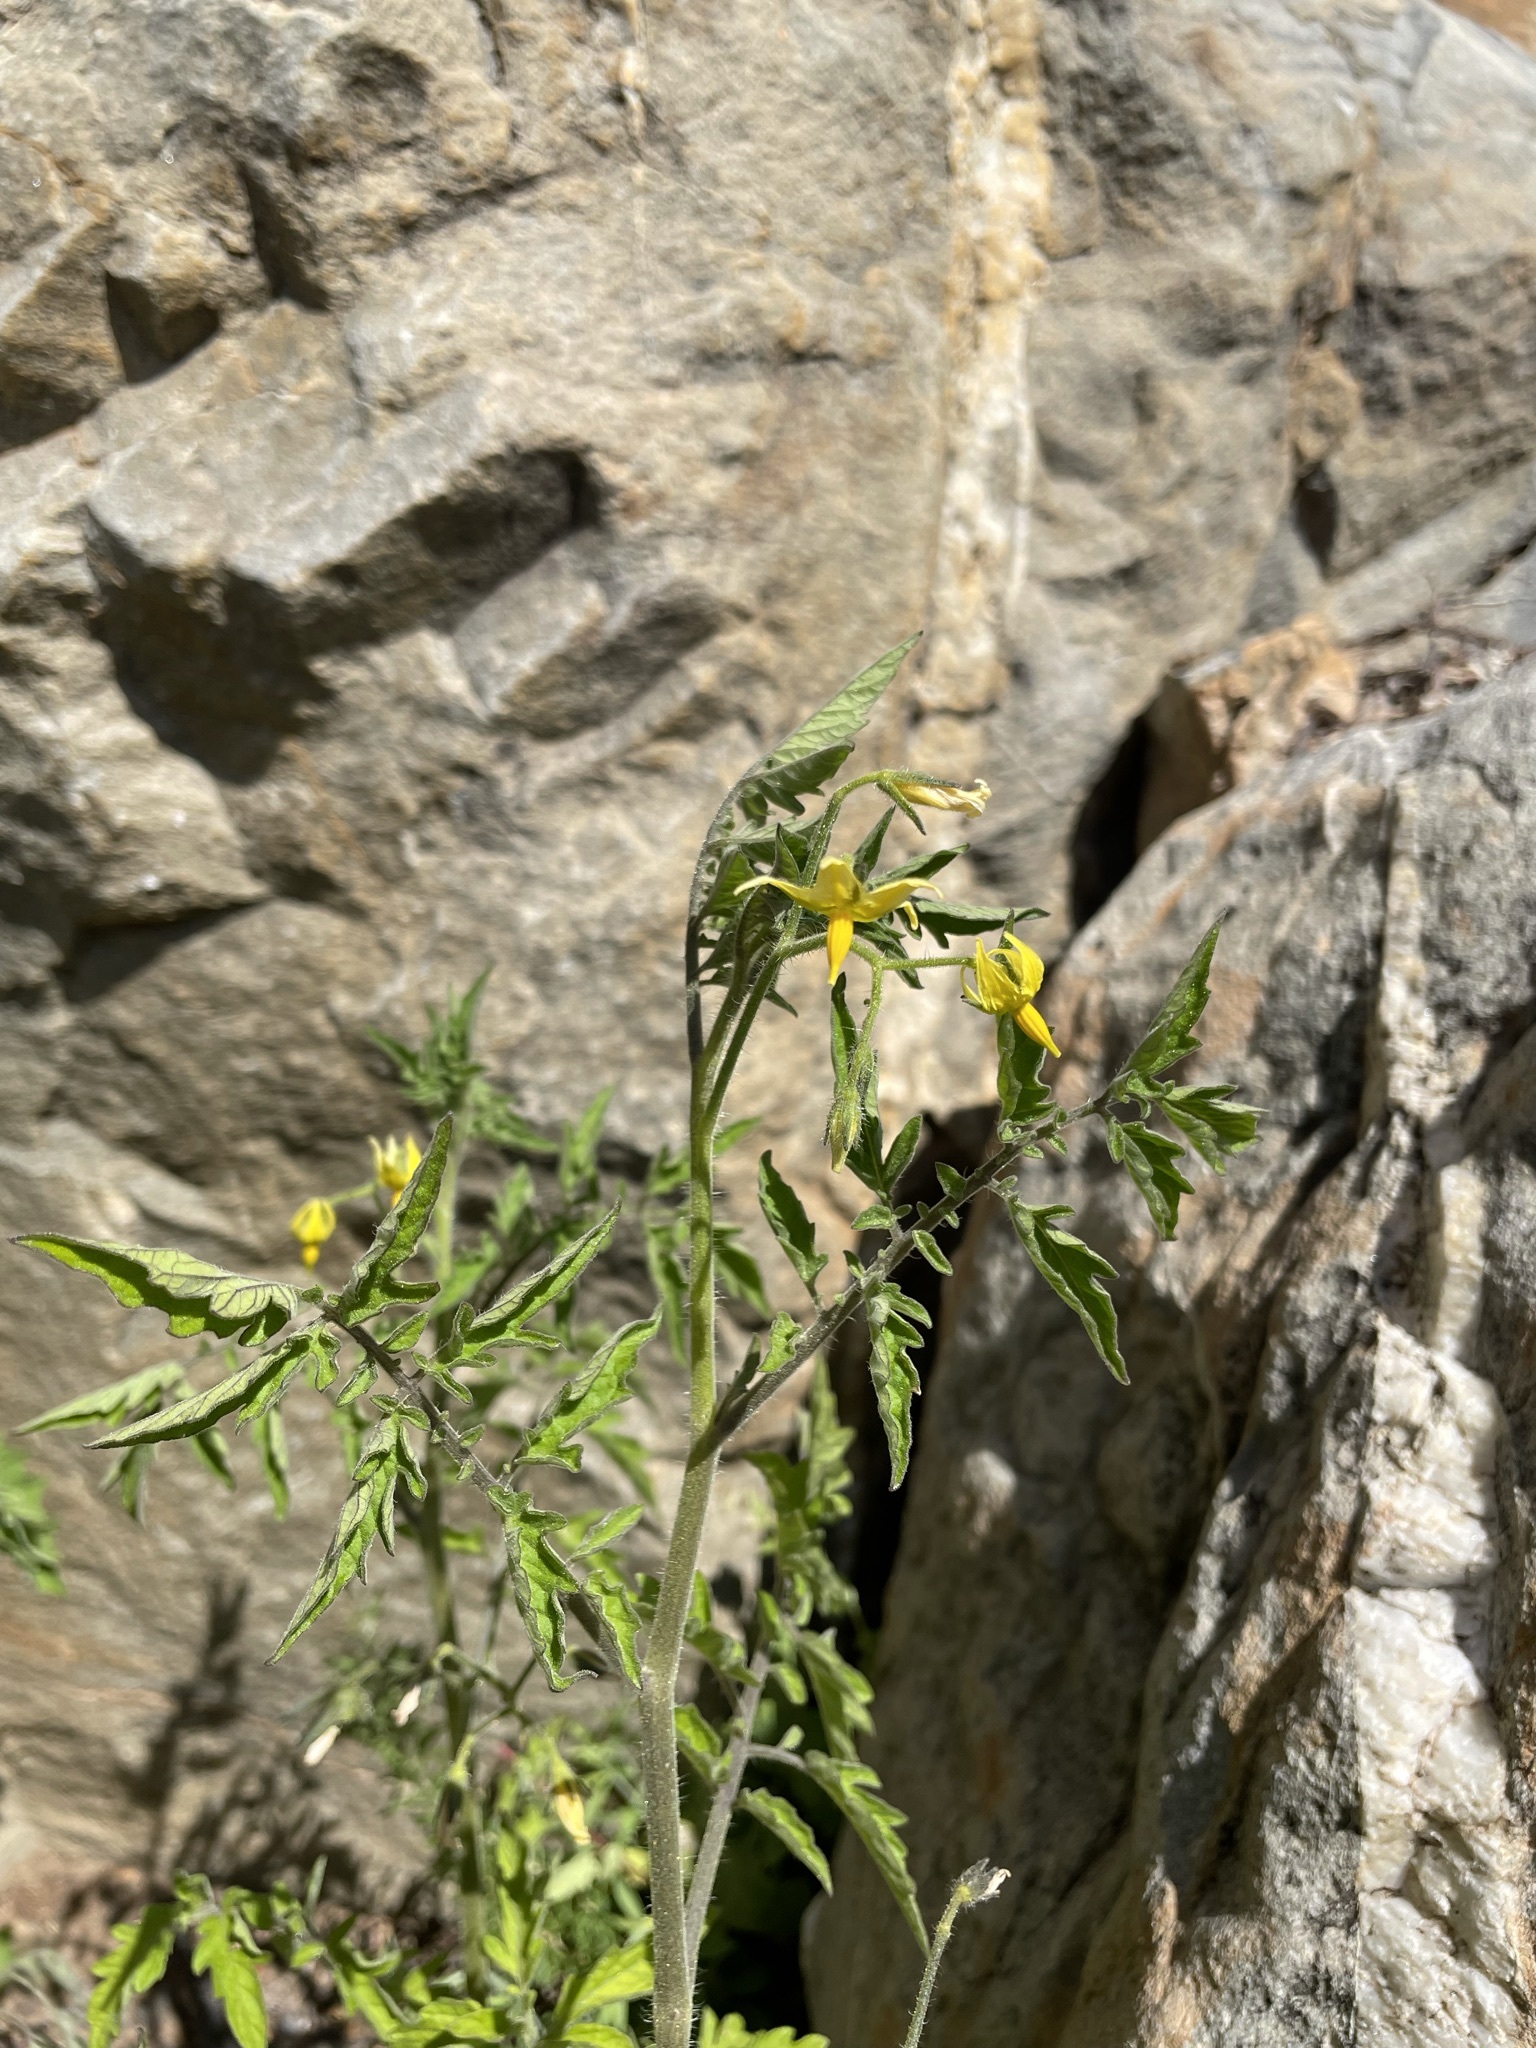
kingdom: Plantae
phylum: Tracheophyta
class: Magnoliopsida
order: Solanales
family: Solanaceae
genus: Solanum
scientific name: Solanum lycopersicum
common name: Garden tomato
